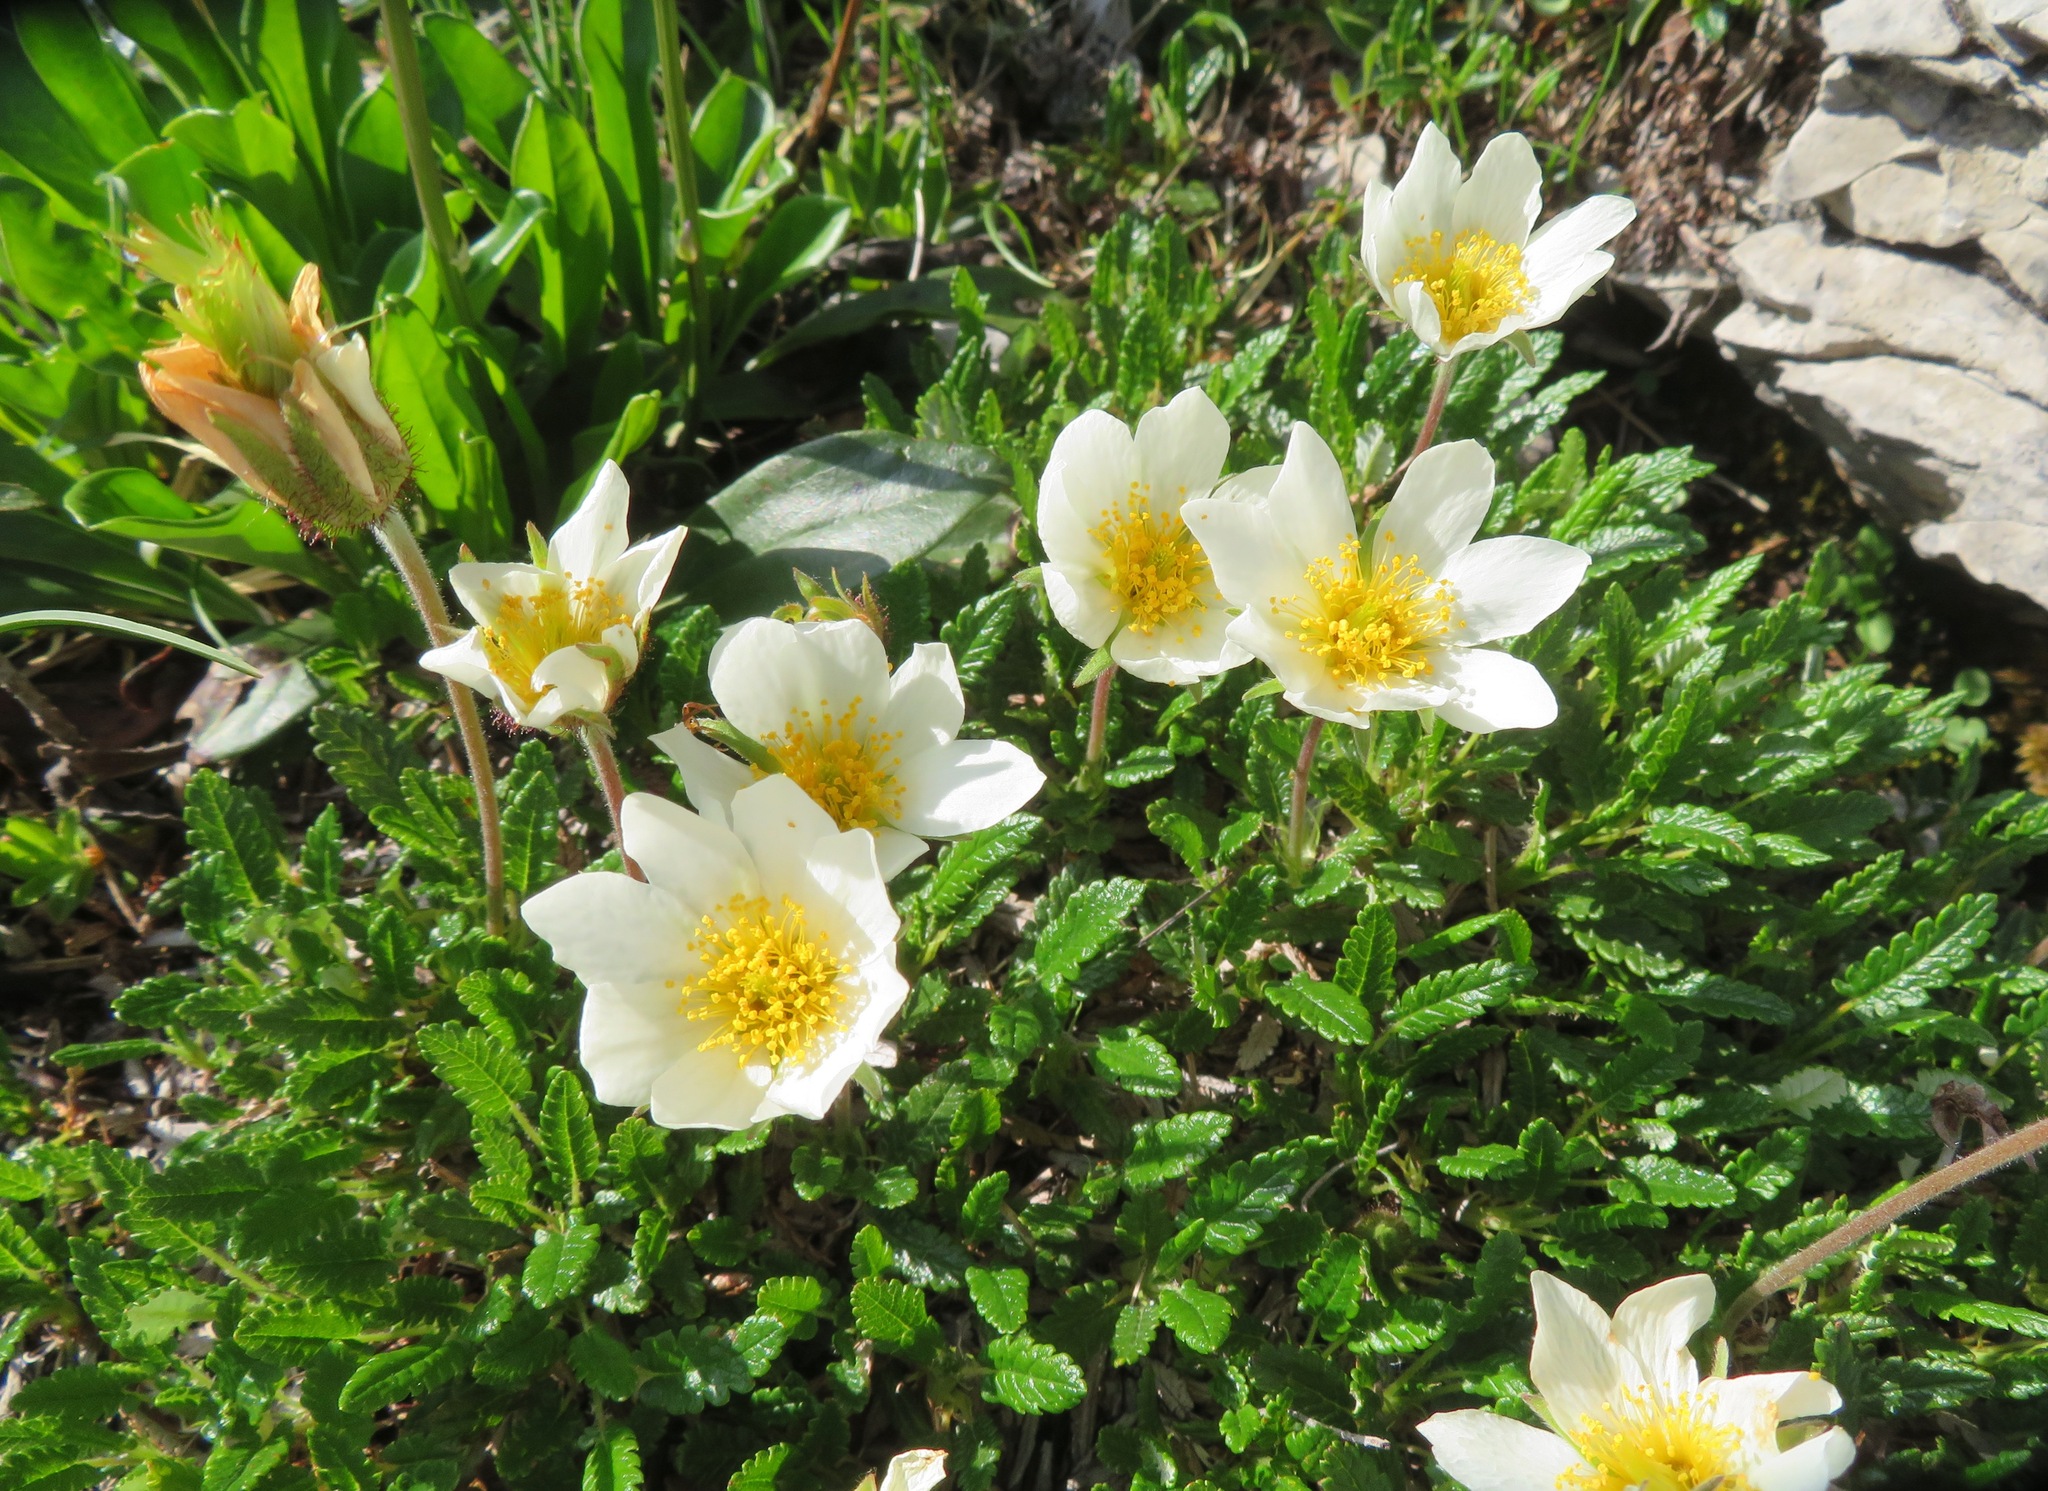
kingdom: Plantae
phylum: Tracheophyta
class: Magnoliopsida
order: Rosales
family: Rosaceae
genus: Dryas
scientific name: Dryas octopetala
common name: Eight-petal mountain-avens
